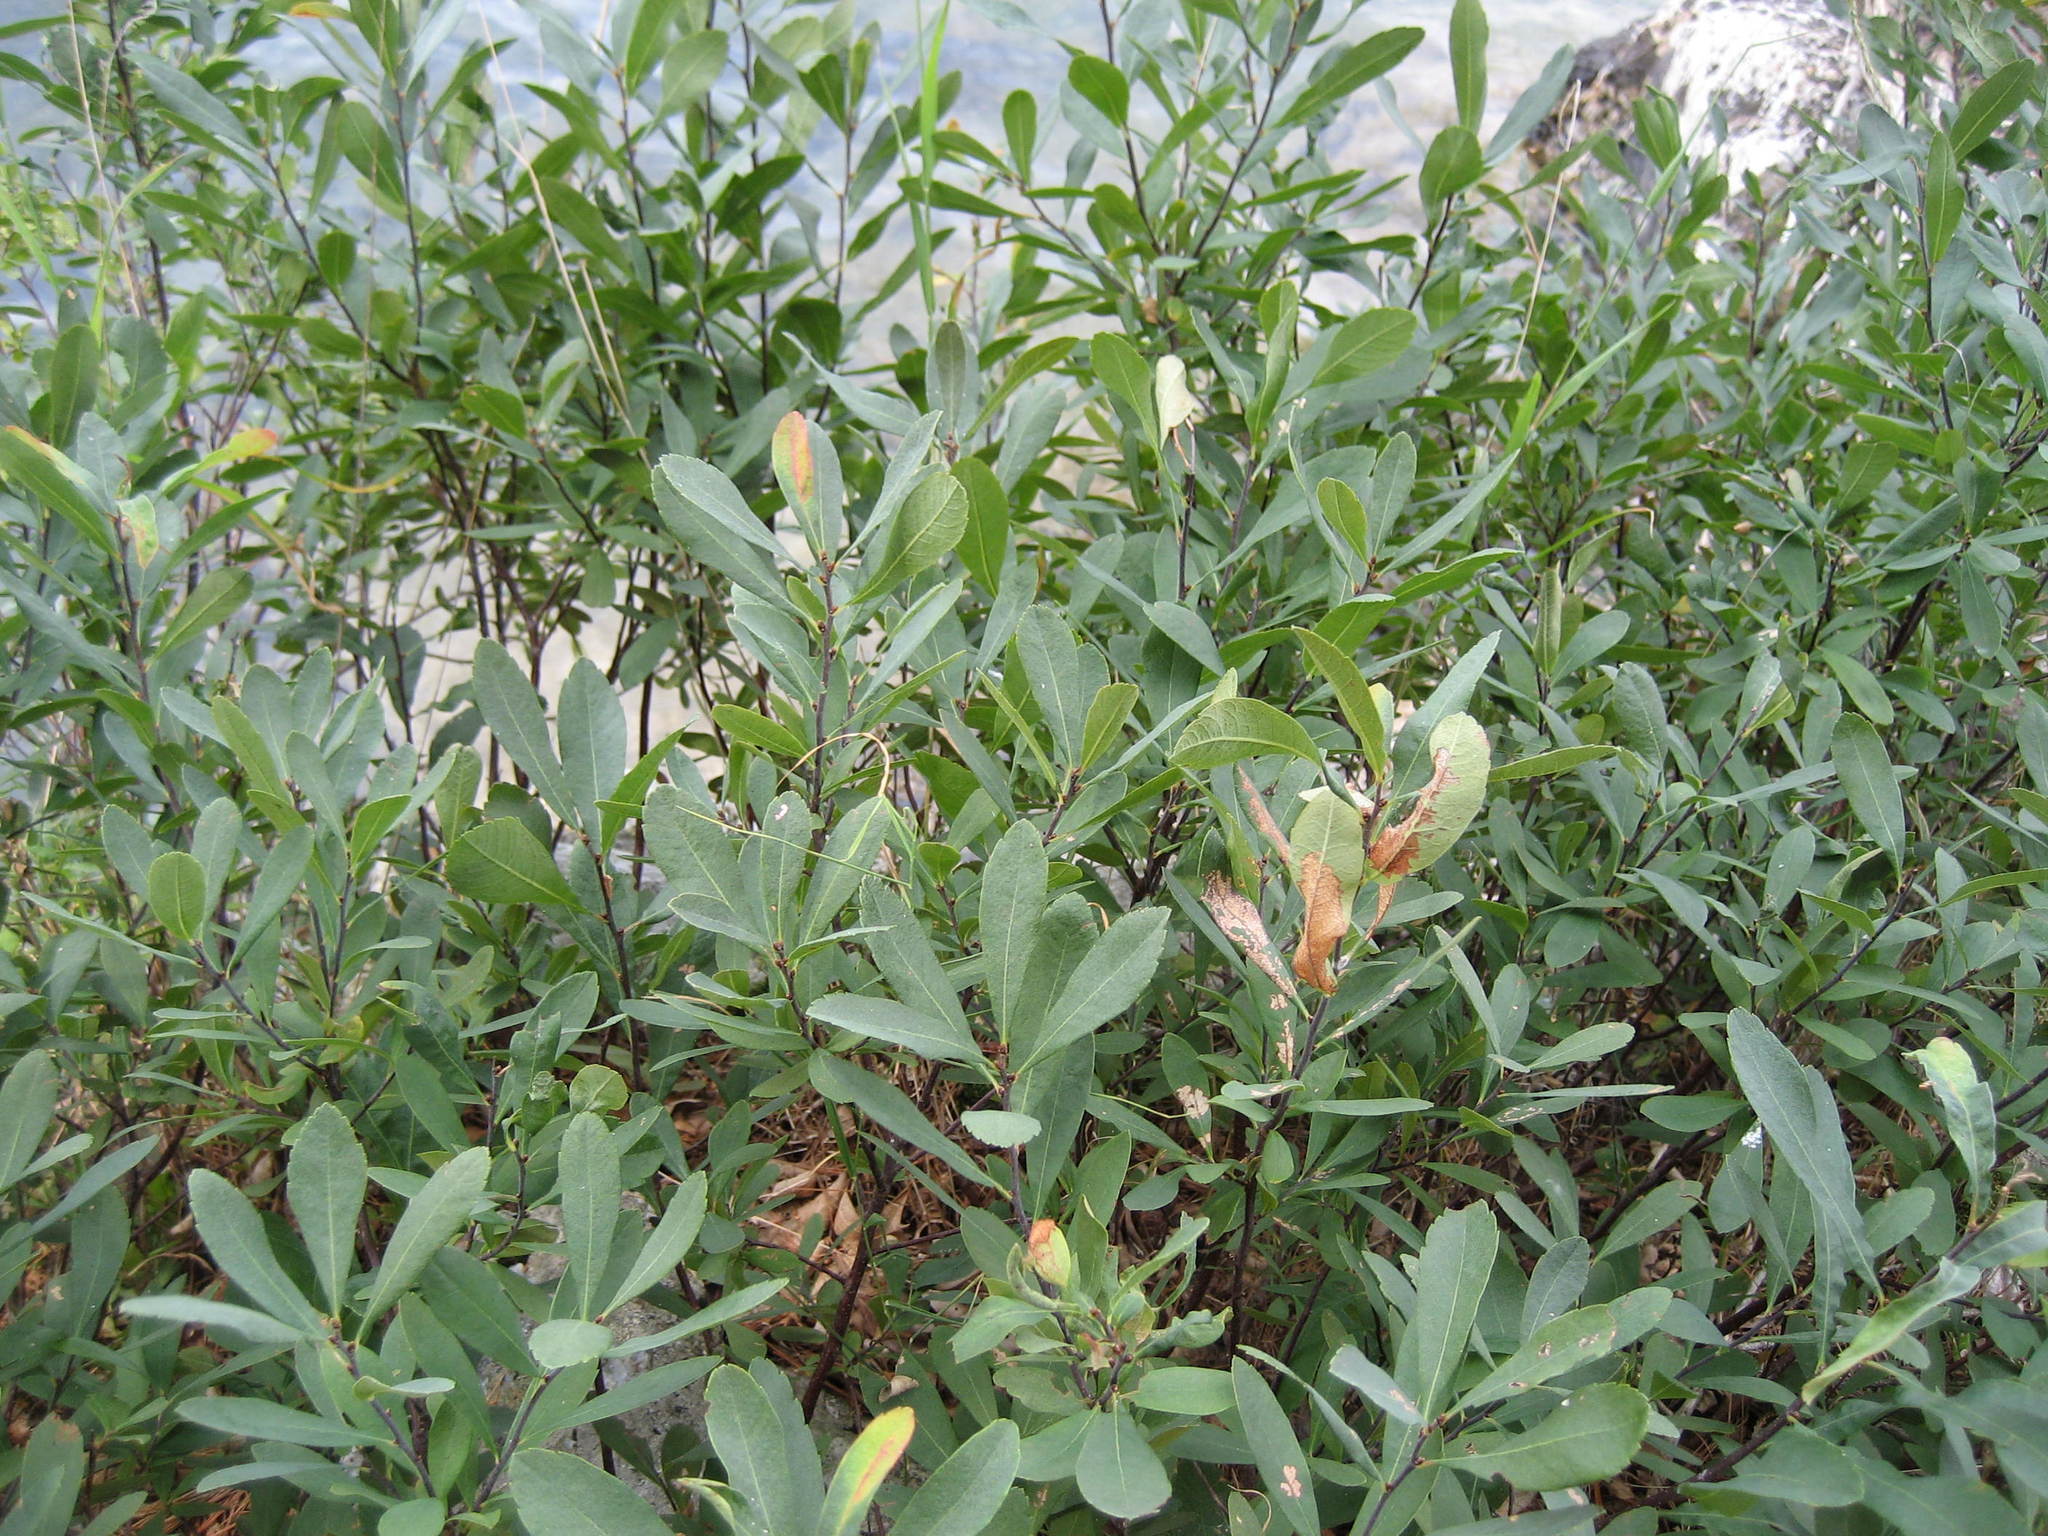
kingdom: Plantae
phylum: Tracheophyta
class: Magnoliopsida
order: Fagales
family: Myricaceae
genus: Myrica
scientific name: Myrica gale
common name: Sweet gale
